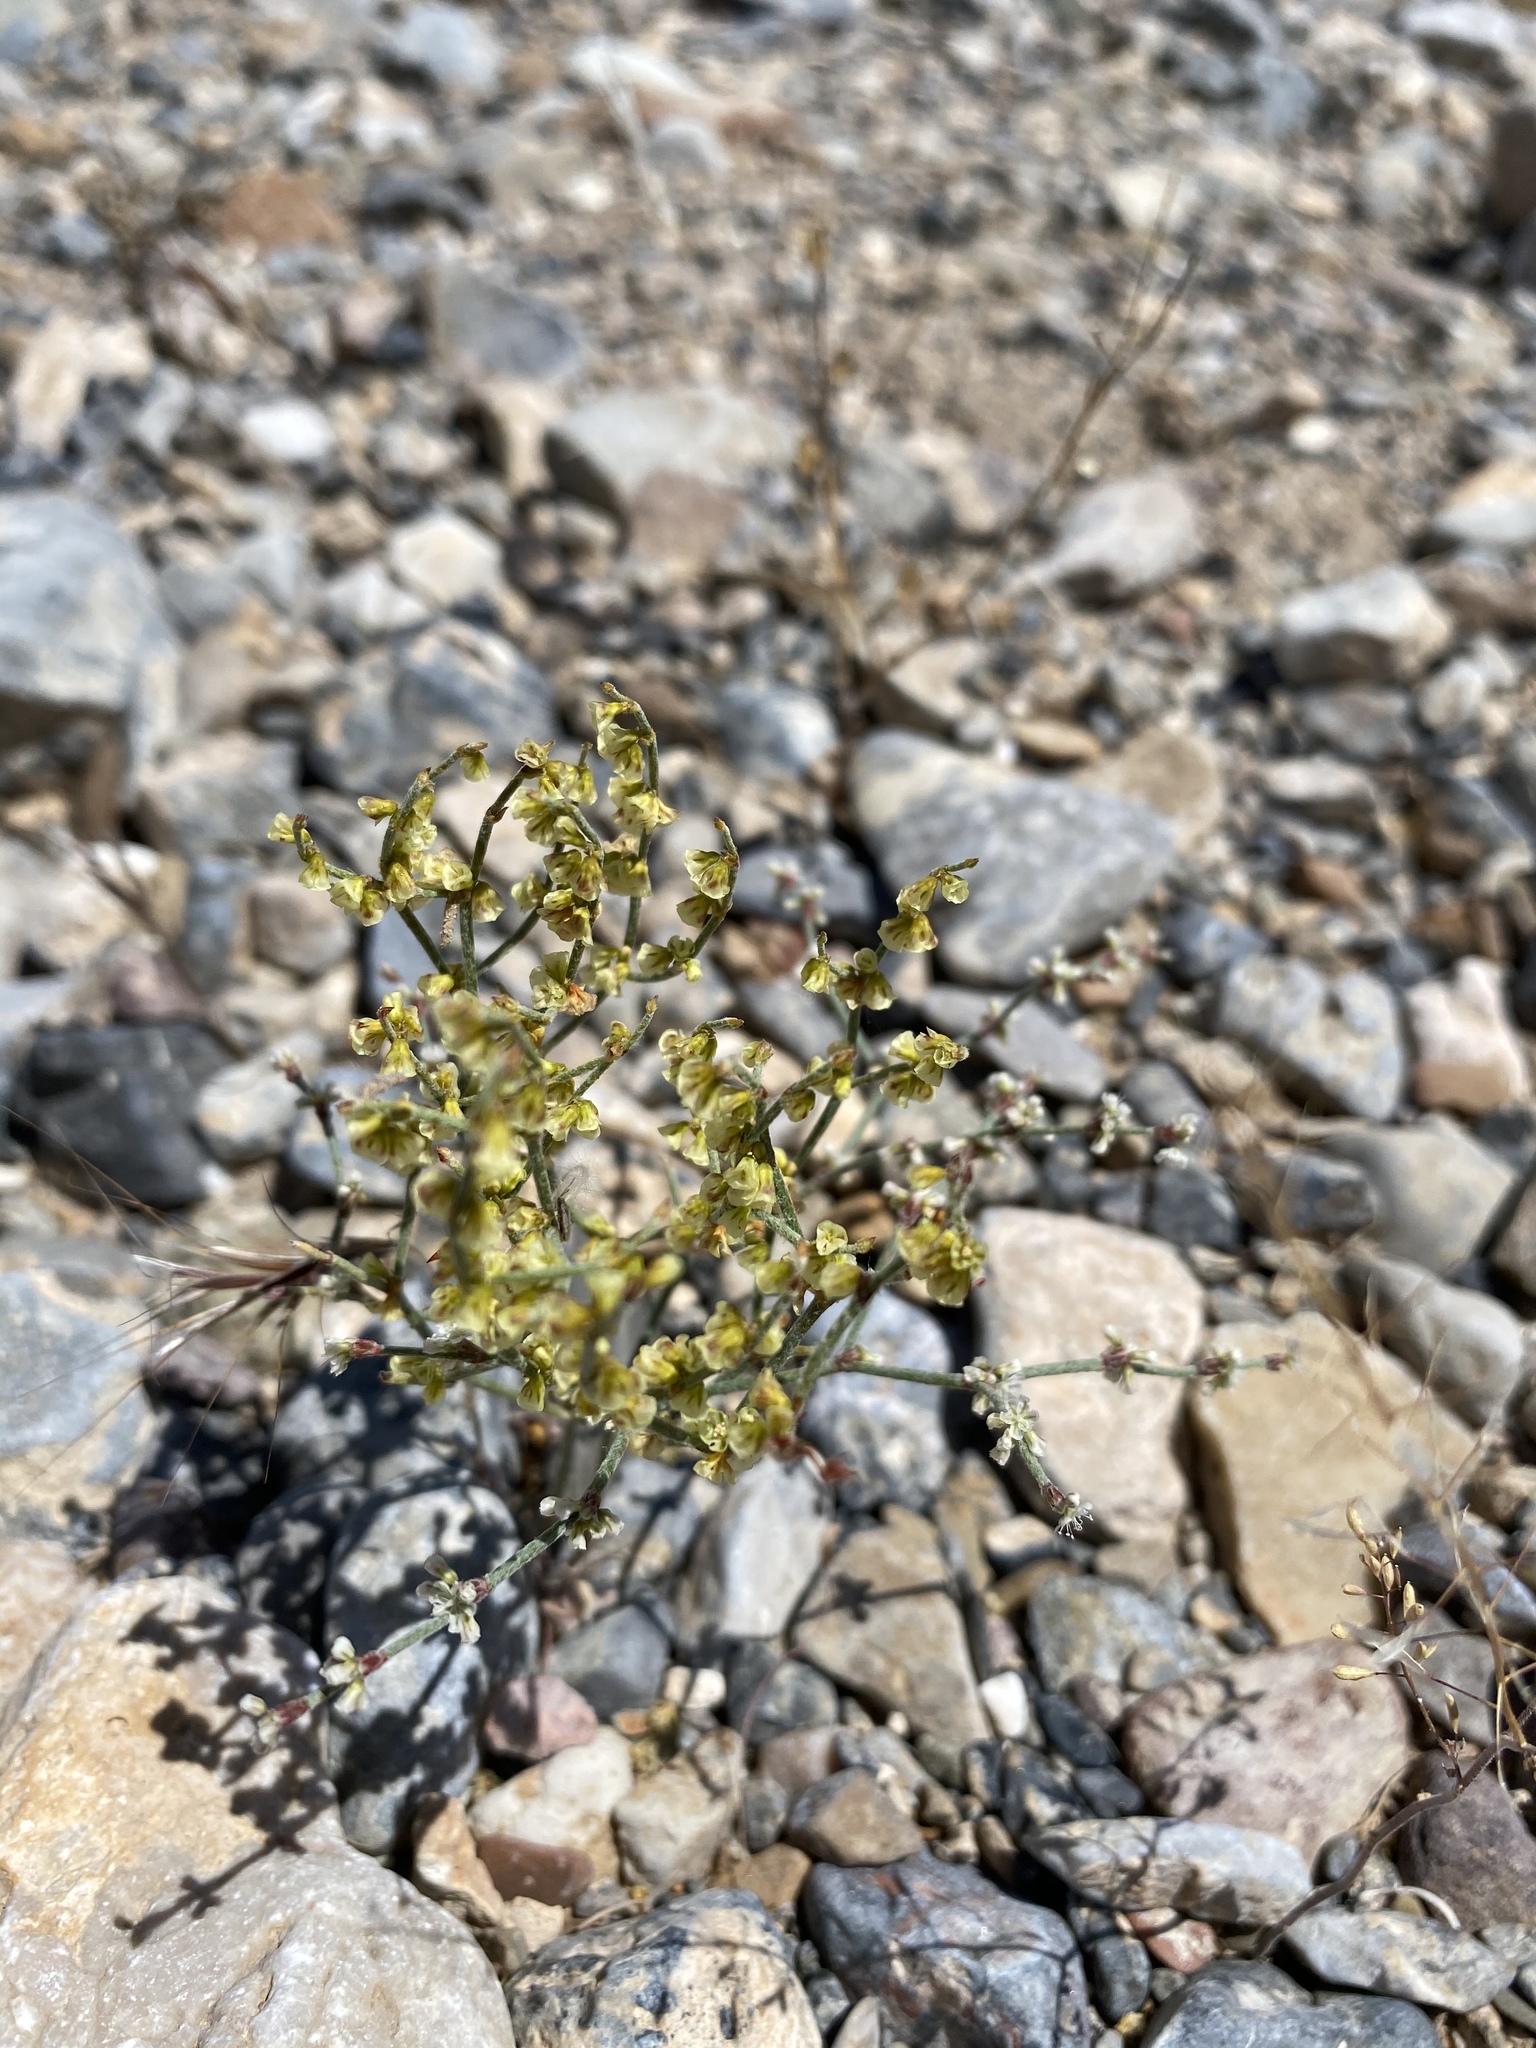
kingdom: Plantae
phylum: Tracheophyta
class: Magnoliopsida
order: Caryophyllales
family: Polygonaceae
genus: Eriogonum
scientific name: Eriogonum nidularium
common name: Bird's-nest wild buckwheat
